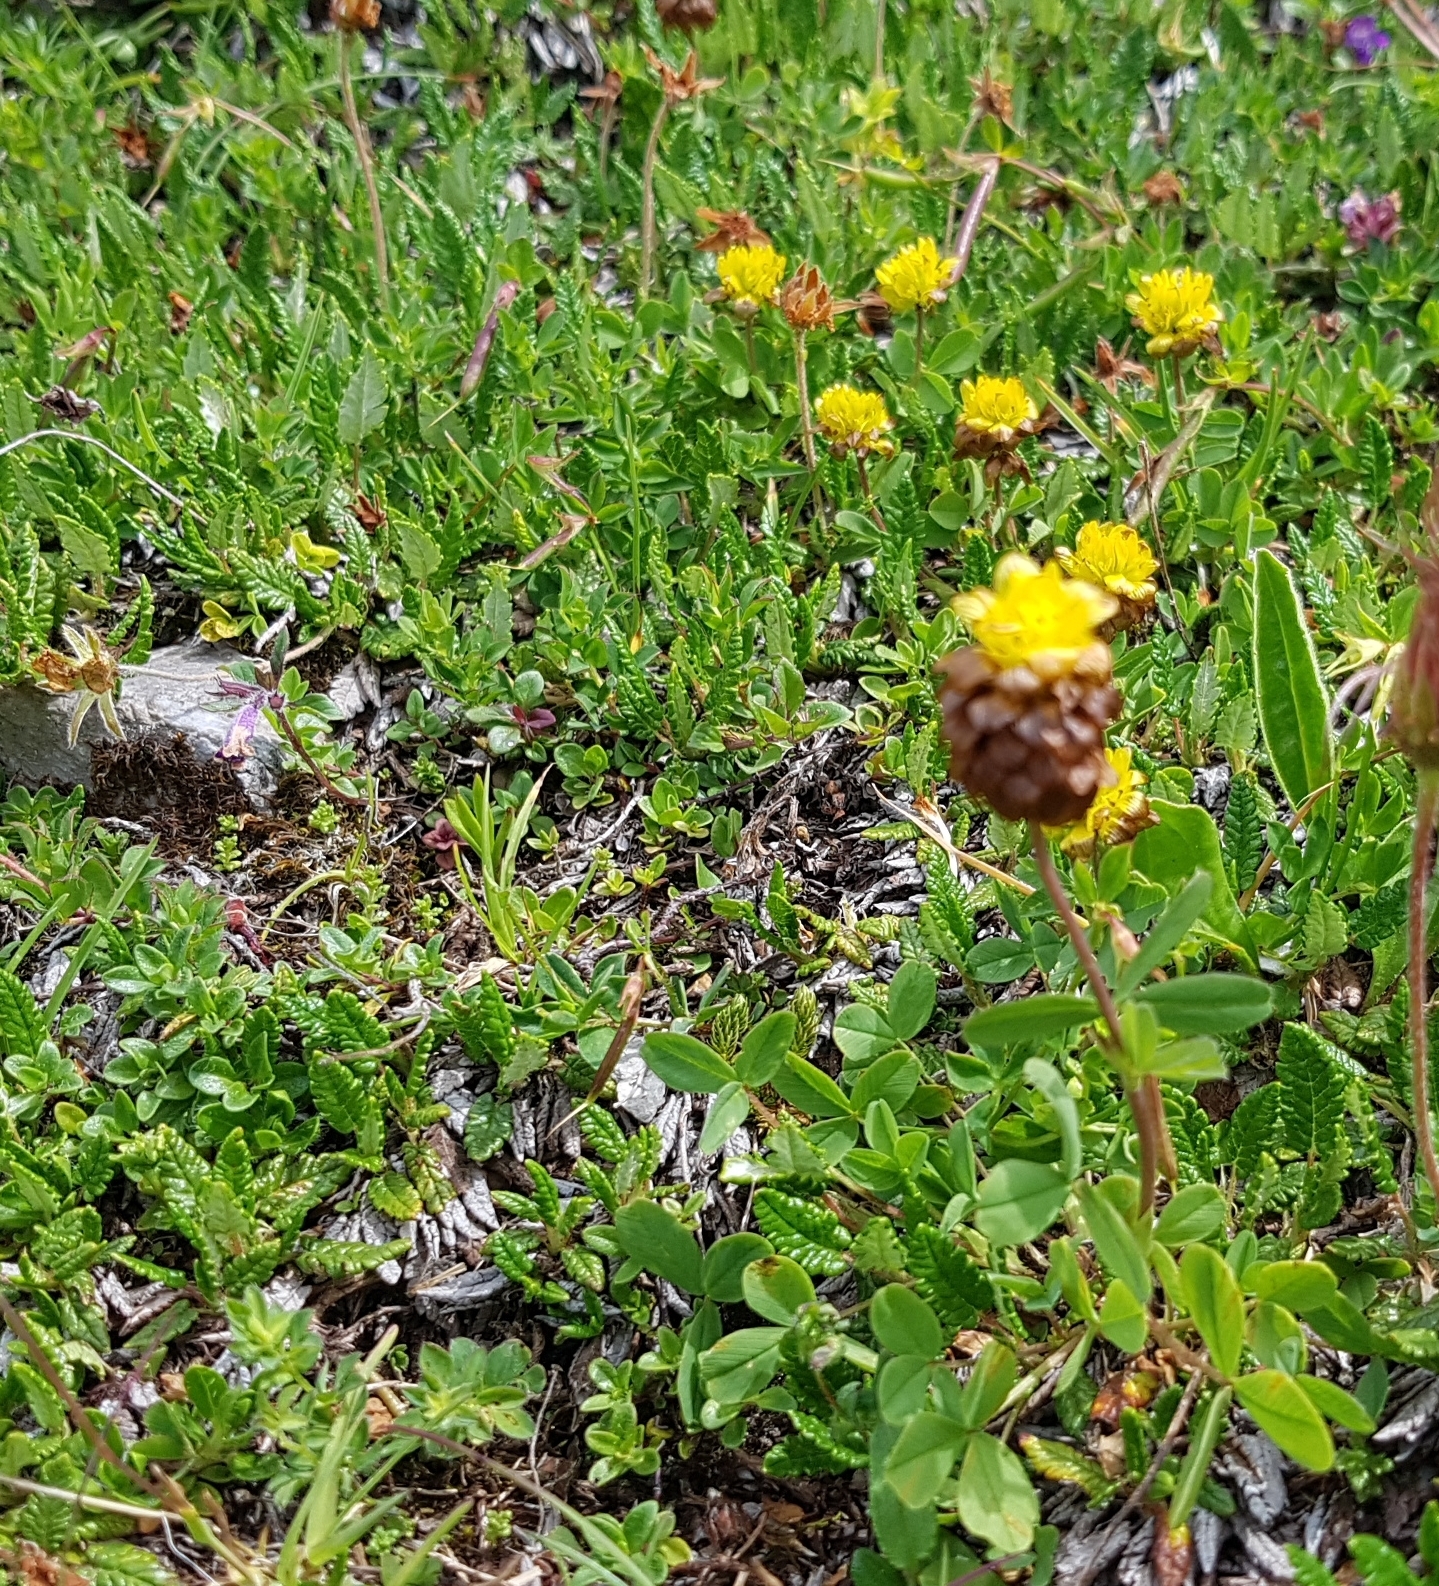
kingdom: Plantae
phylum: Tracheophyta
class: Magnoliopsida
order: Fabales
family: Fabaceae
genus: Trifolium
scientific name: Trifolium badium
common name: Brown clover
